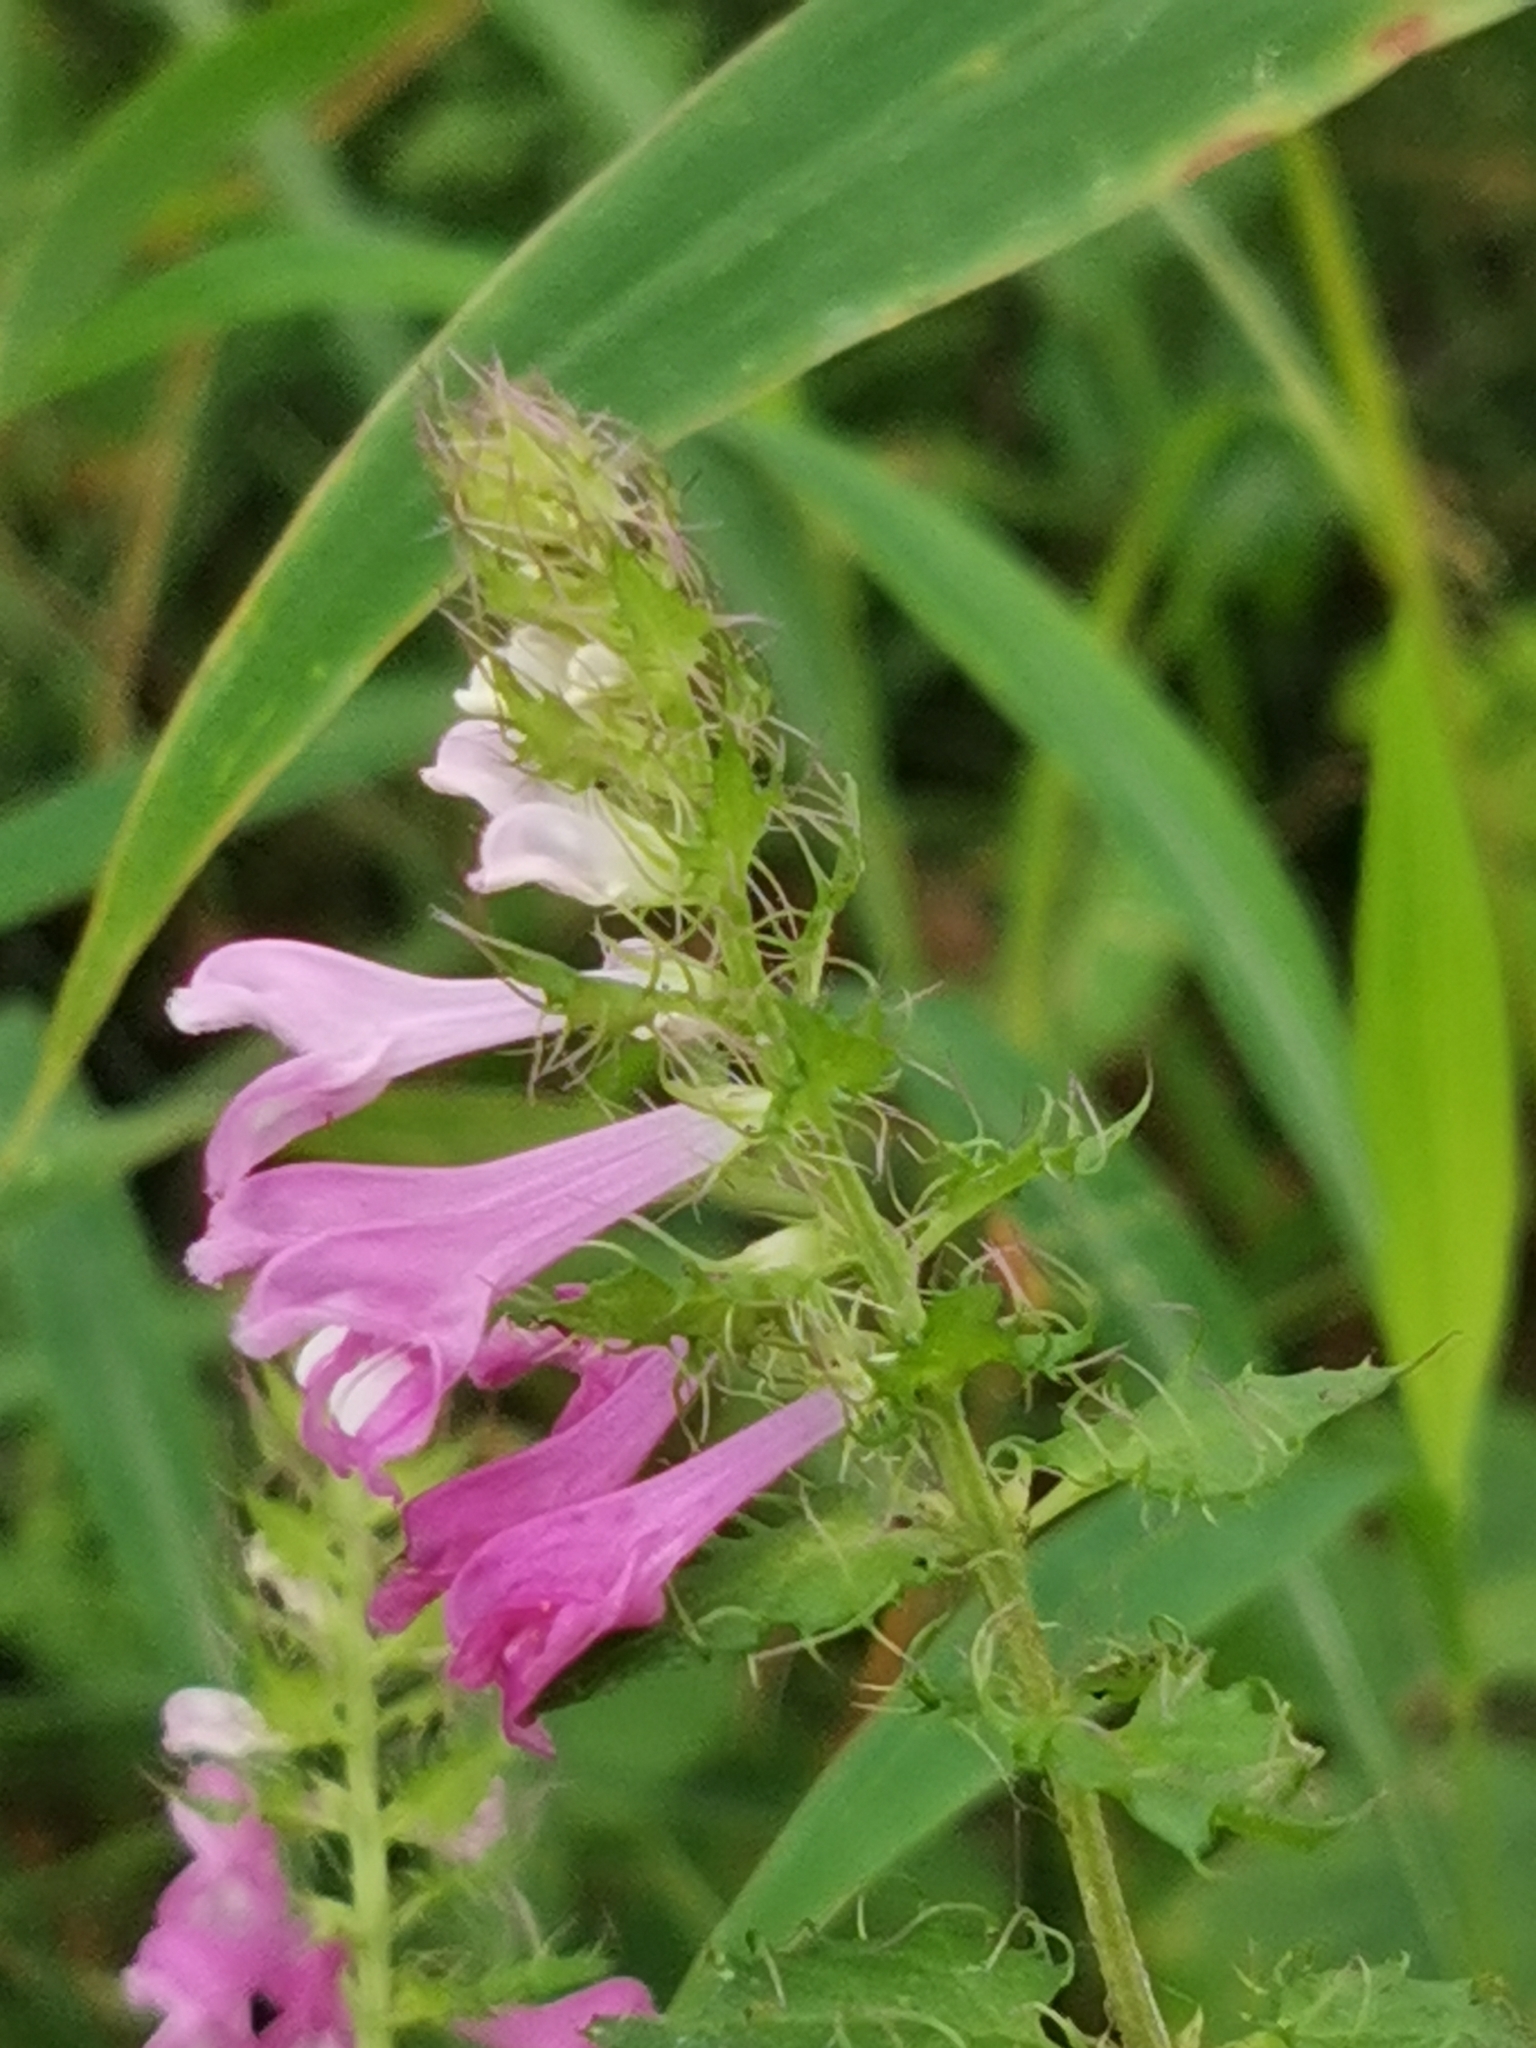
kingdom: Plantae
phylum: Tracheophyta
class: Magnoliopsida
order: Lamiales
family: Orobanchaceae
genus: Melampyrum
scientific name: Melampyrum roseum
